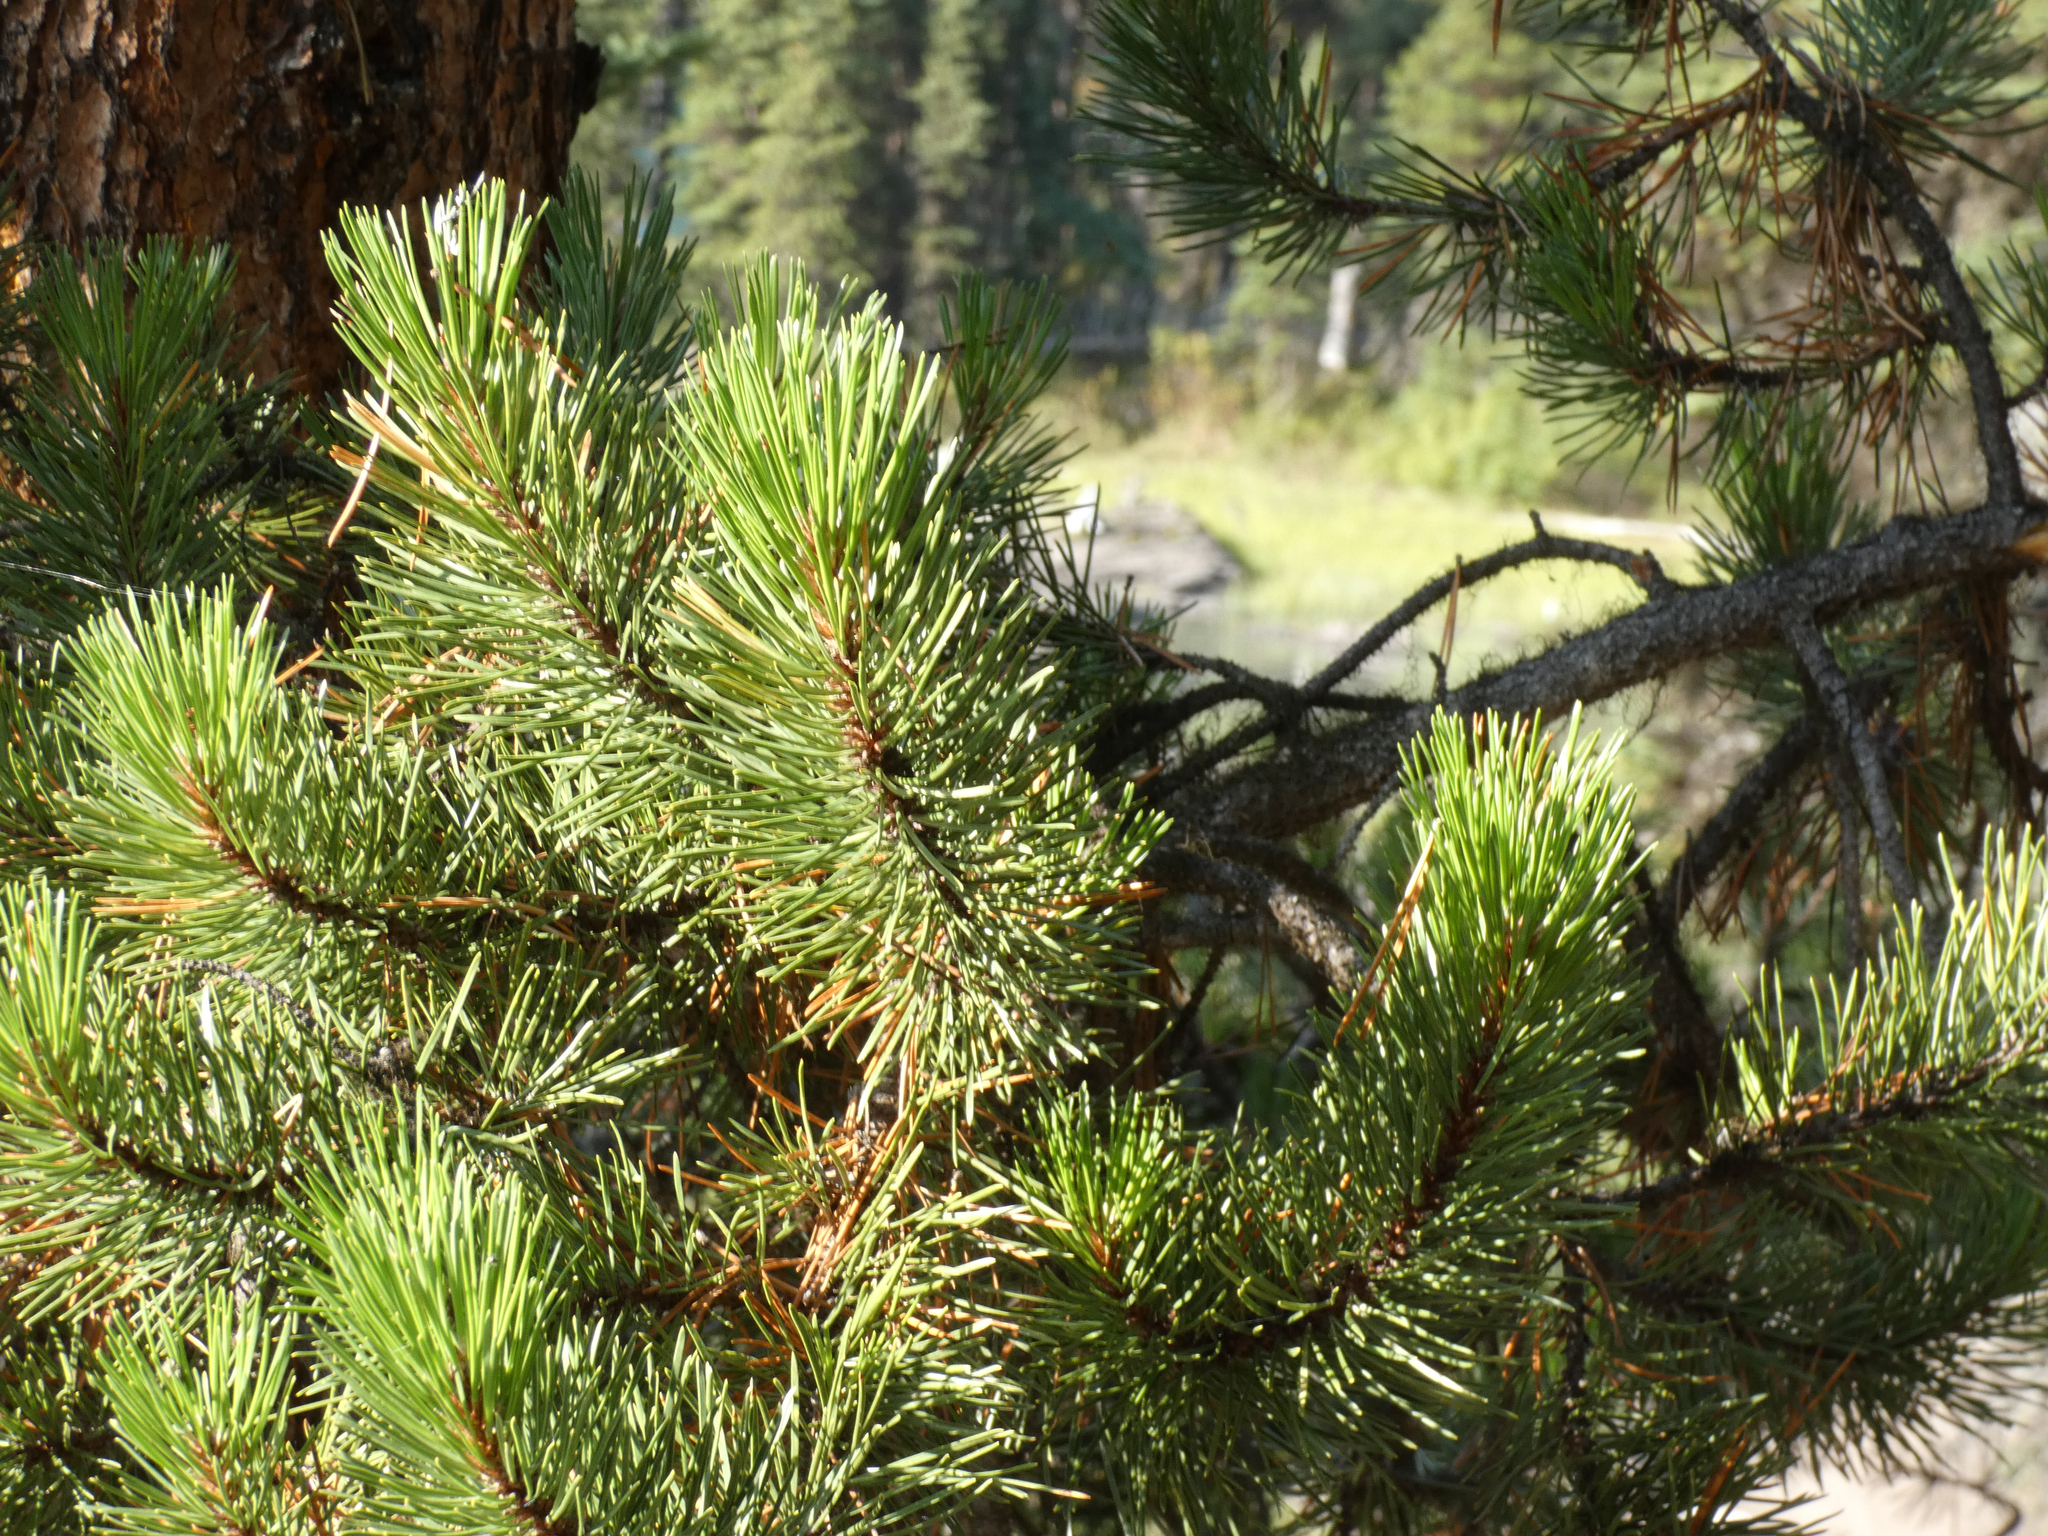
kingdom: Plantae
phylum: Tracheophyta
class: Pinopsida
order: Pinales
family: Pinaceae
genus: Pinus
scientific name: Pinus contorta
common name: Lodgepole pine
